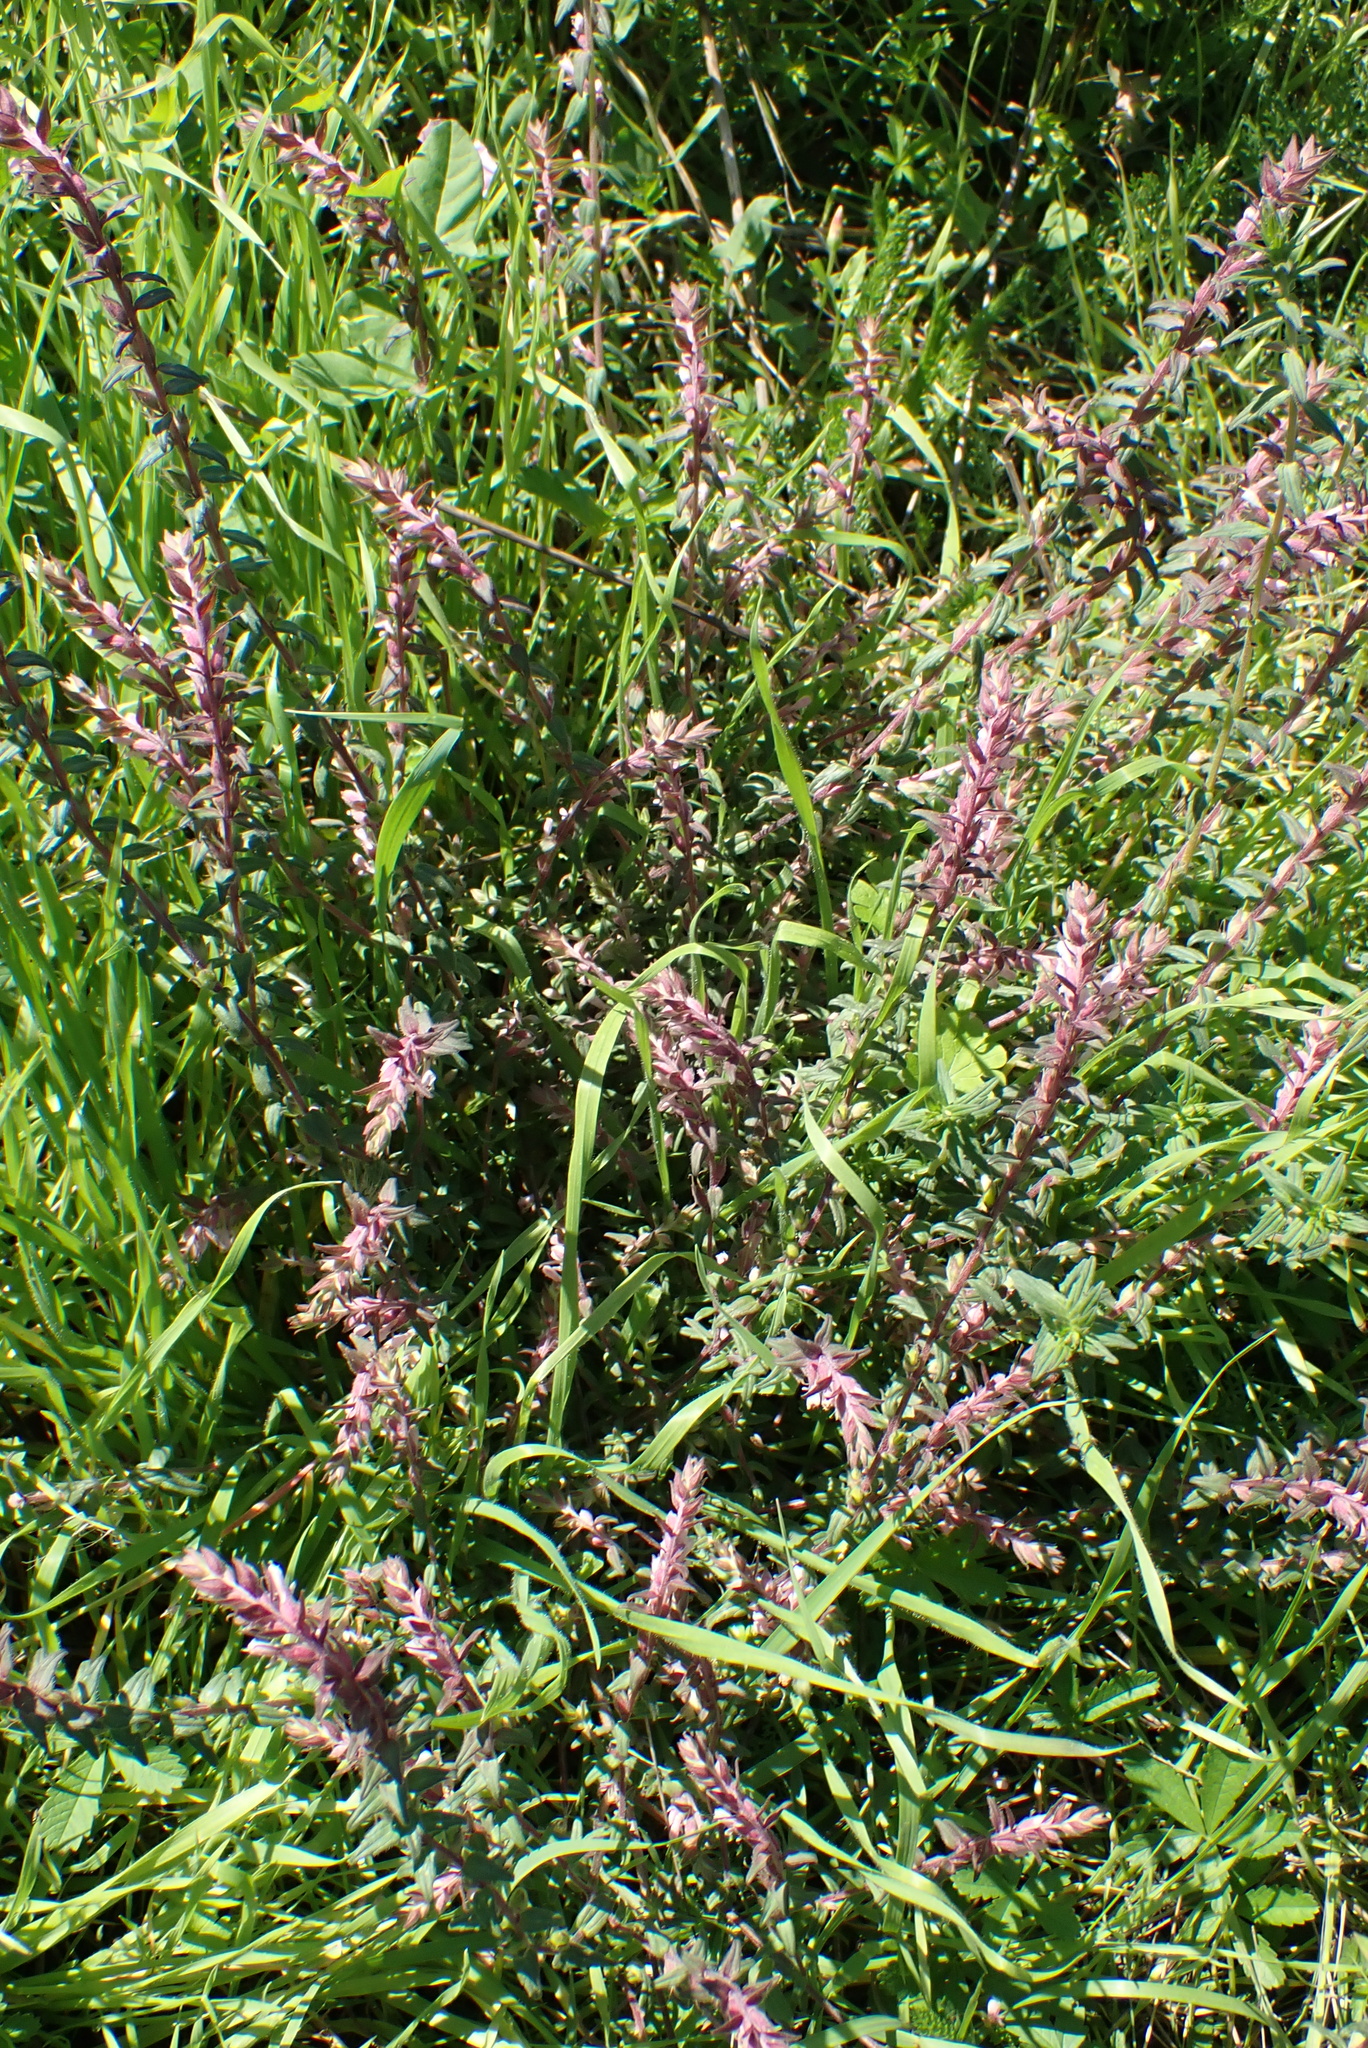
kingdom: Plantae
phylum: Tracheophyta
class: Magnoliopsida
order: Lamiales
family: Orobanchaceae
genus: Odontites
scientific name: Odontites vulgaris
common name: Broomrape
